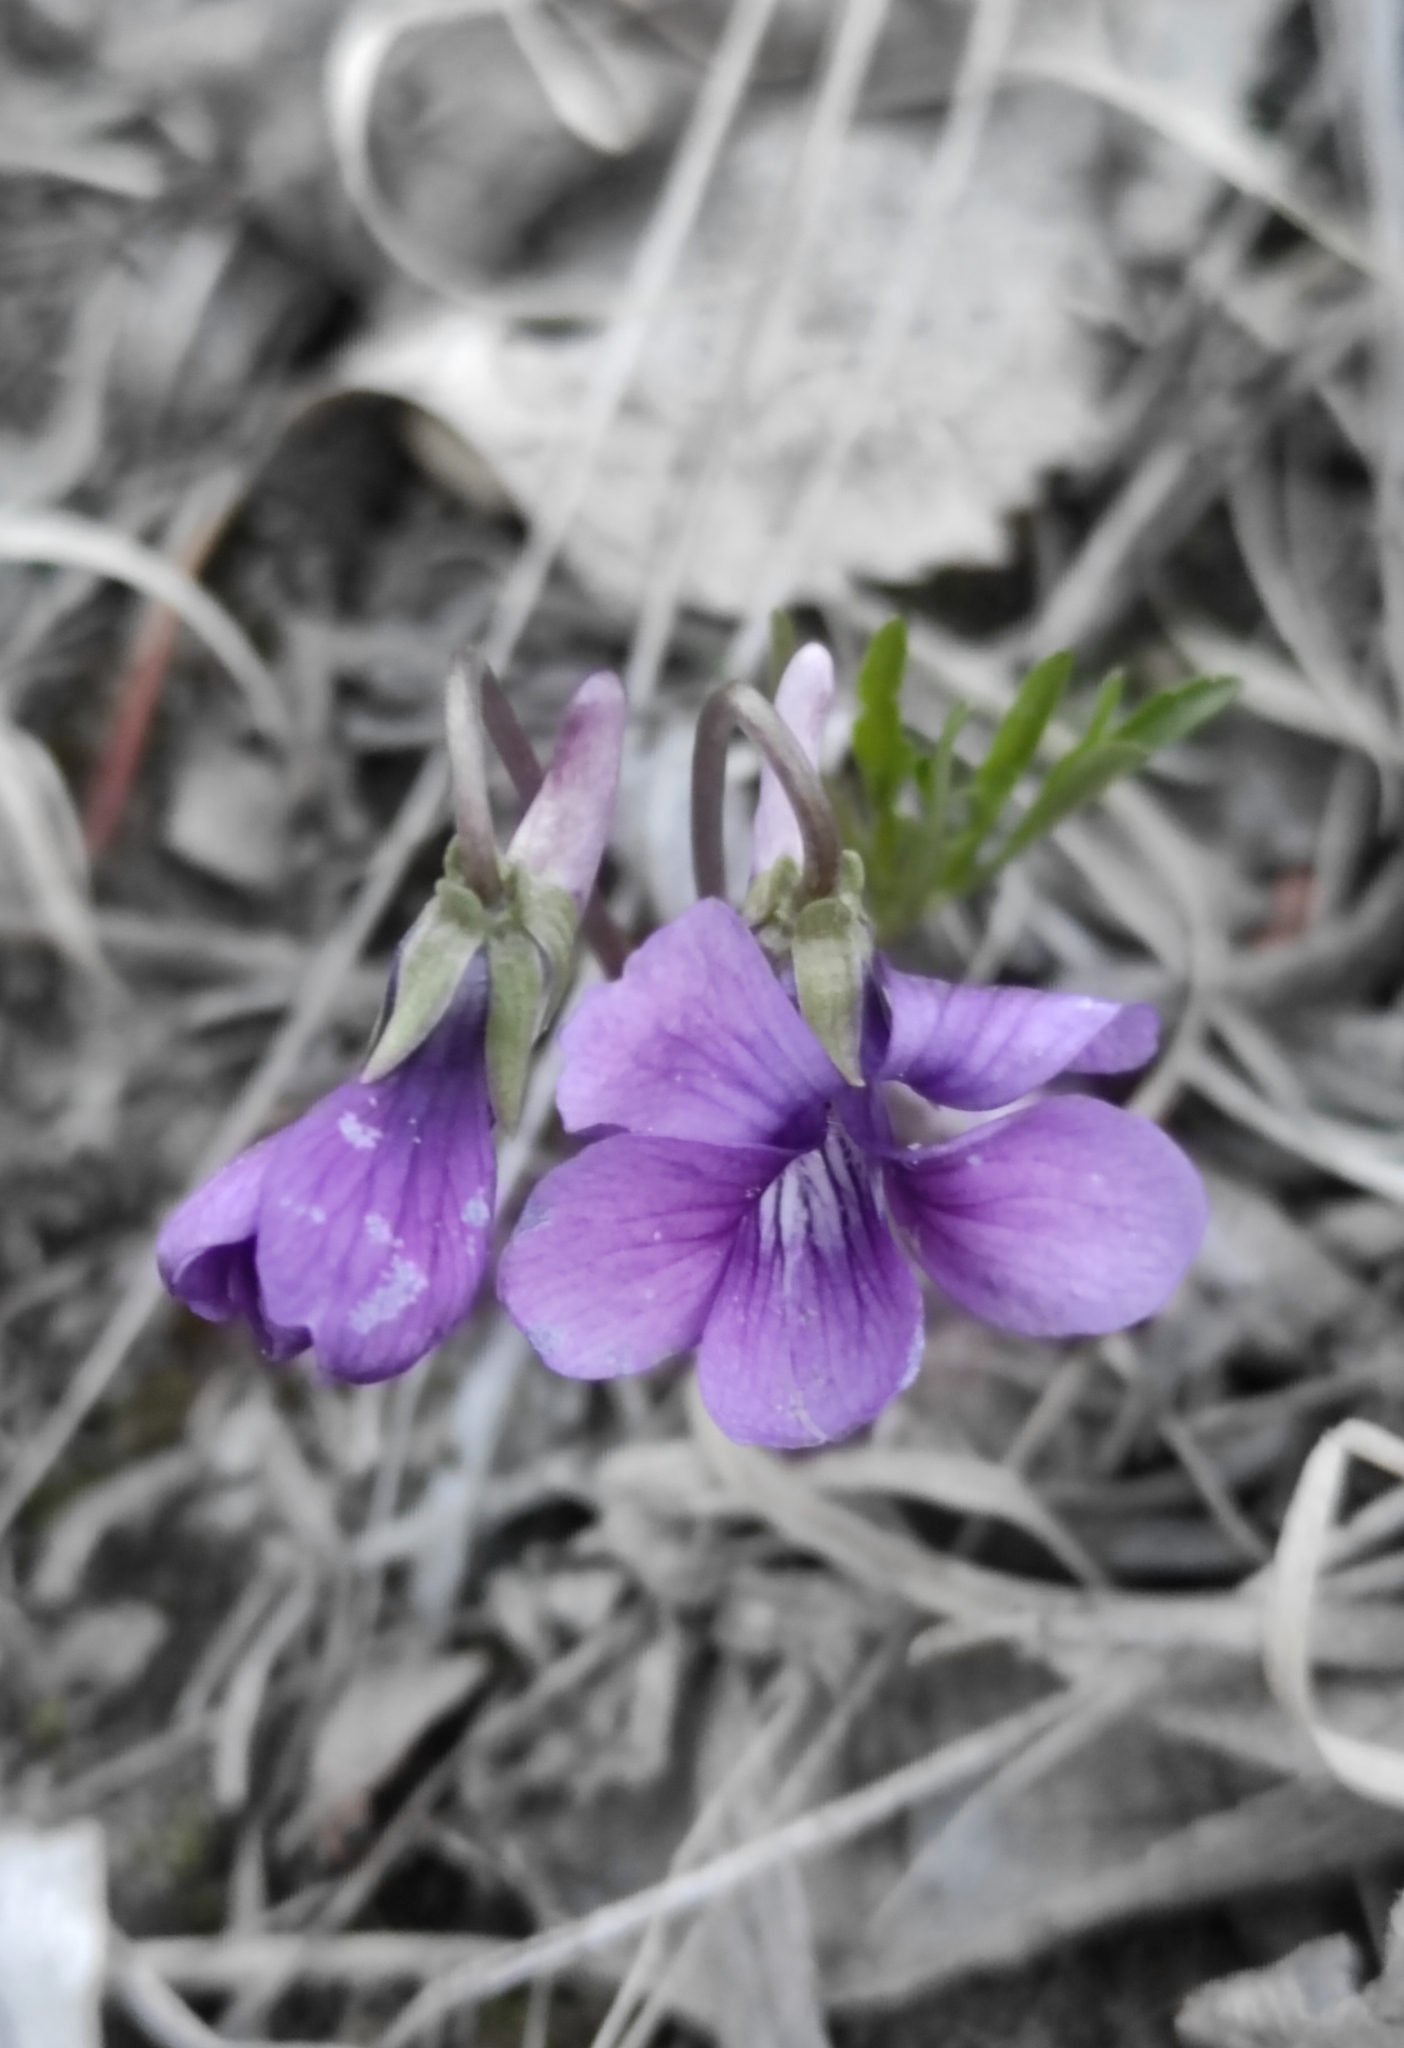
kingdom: Plantae
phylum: Tracheophyta
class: Magnoliopsida
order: Malpighiales
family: Violaceae
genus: Viola
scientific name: Viola multifida
